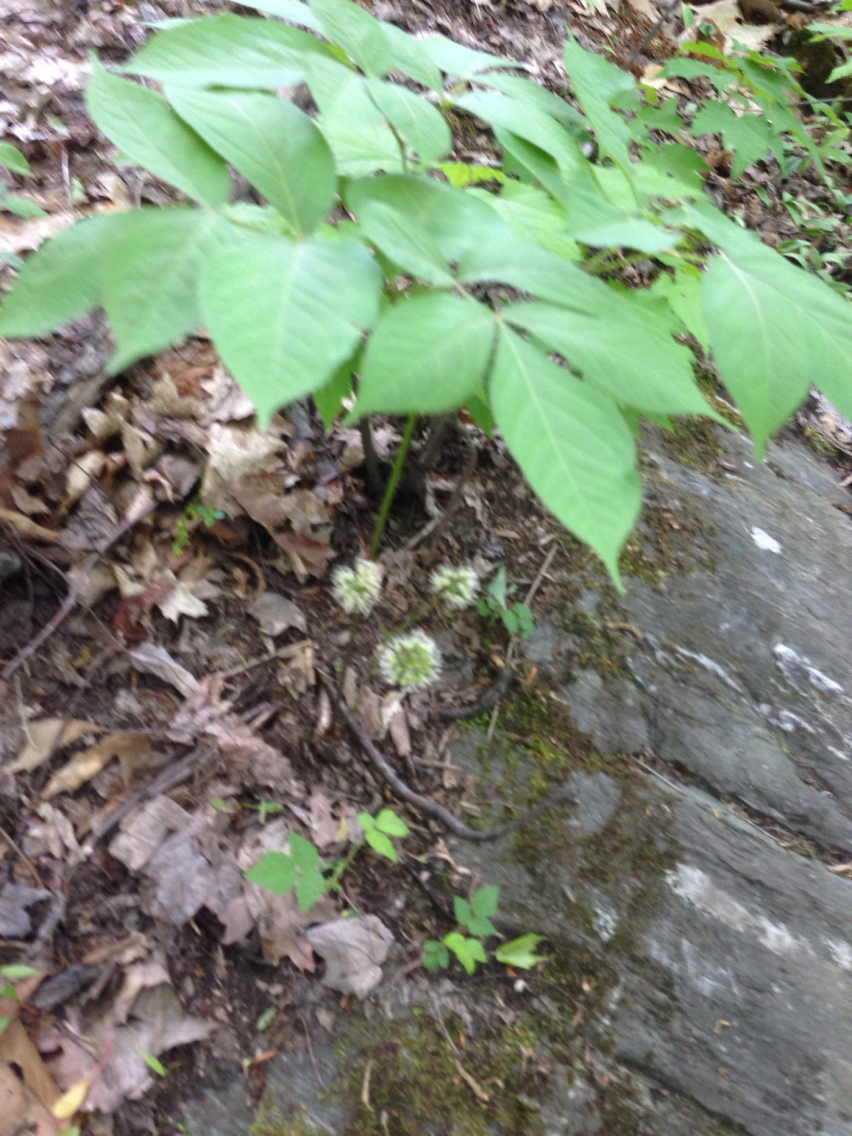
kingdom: Plantae
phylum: Tracheophyta
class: Magnoliopsida
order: Apiales
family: Araliaceae
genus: Aralia
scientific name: Aralia nudicaulis
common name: Wild sarsaparilla
